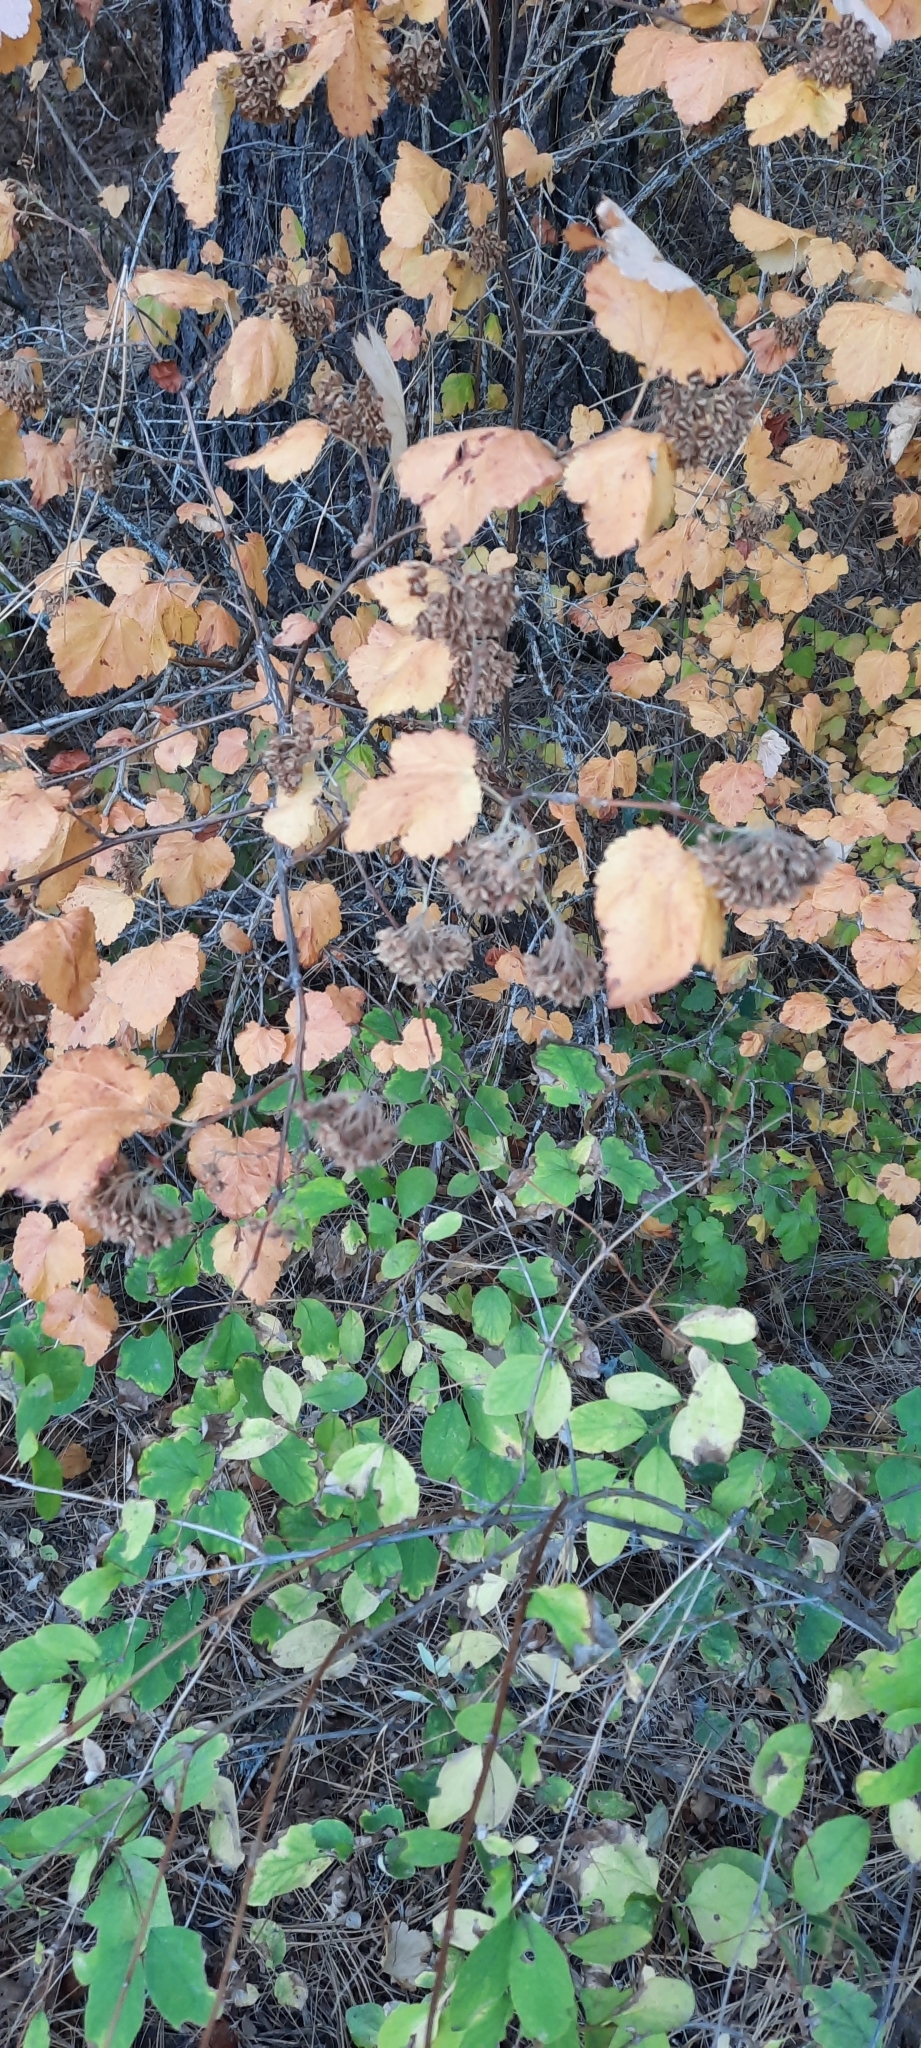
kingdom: Plantae
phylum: Tracheophyta
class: Magnoliopsida
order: Rosales
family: Rosaceae
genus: Physocarpus
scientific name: Physocarpus malvaceus
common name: Mallow ninebark
